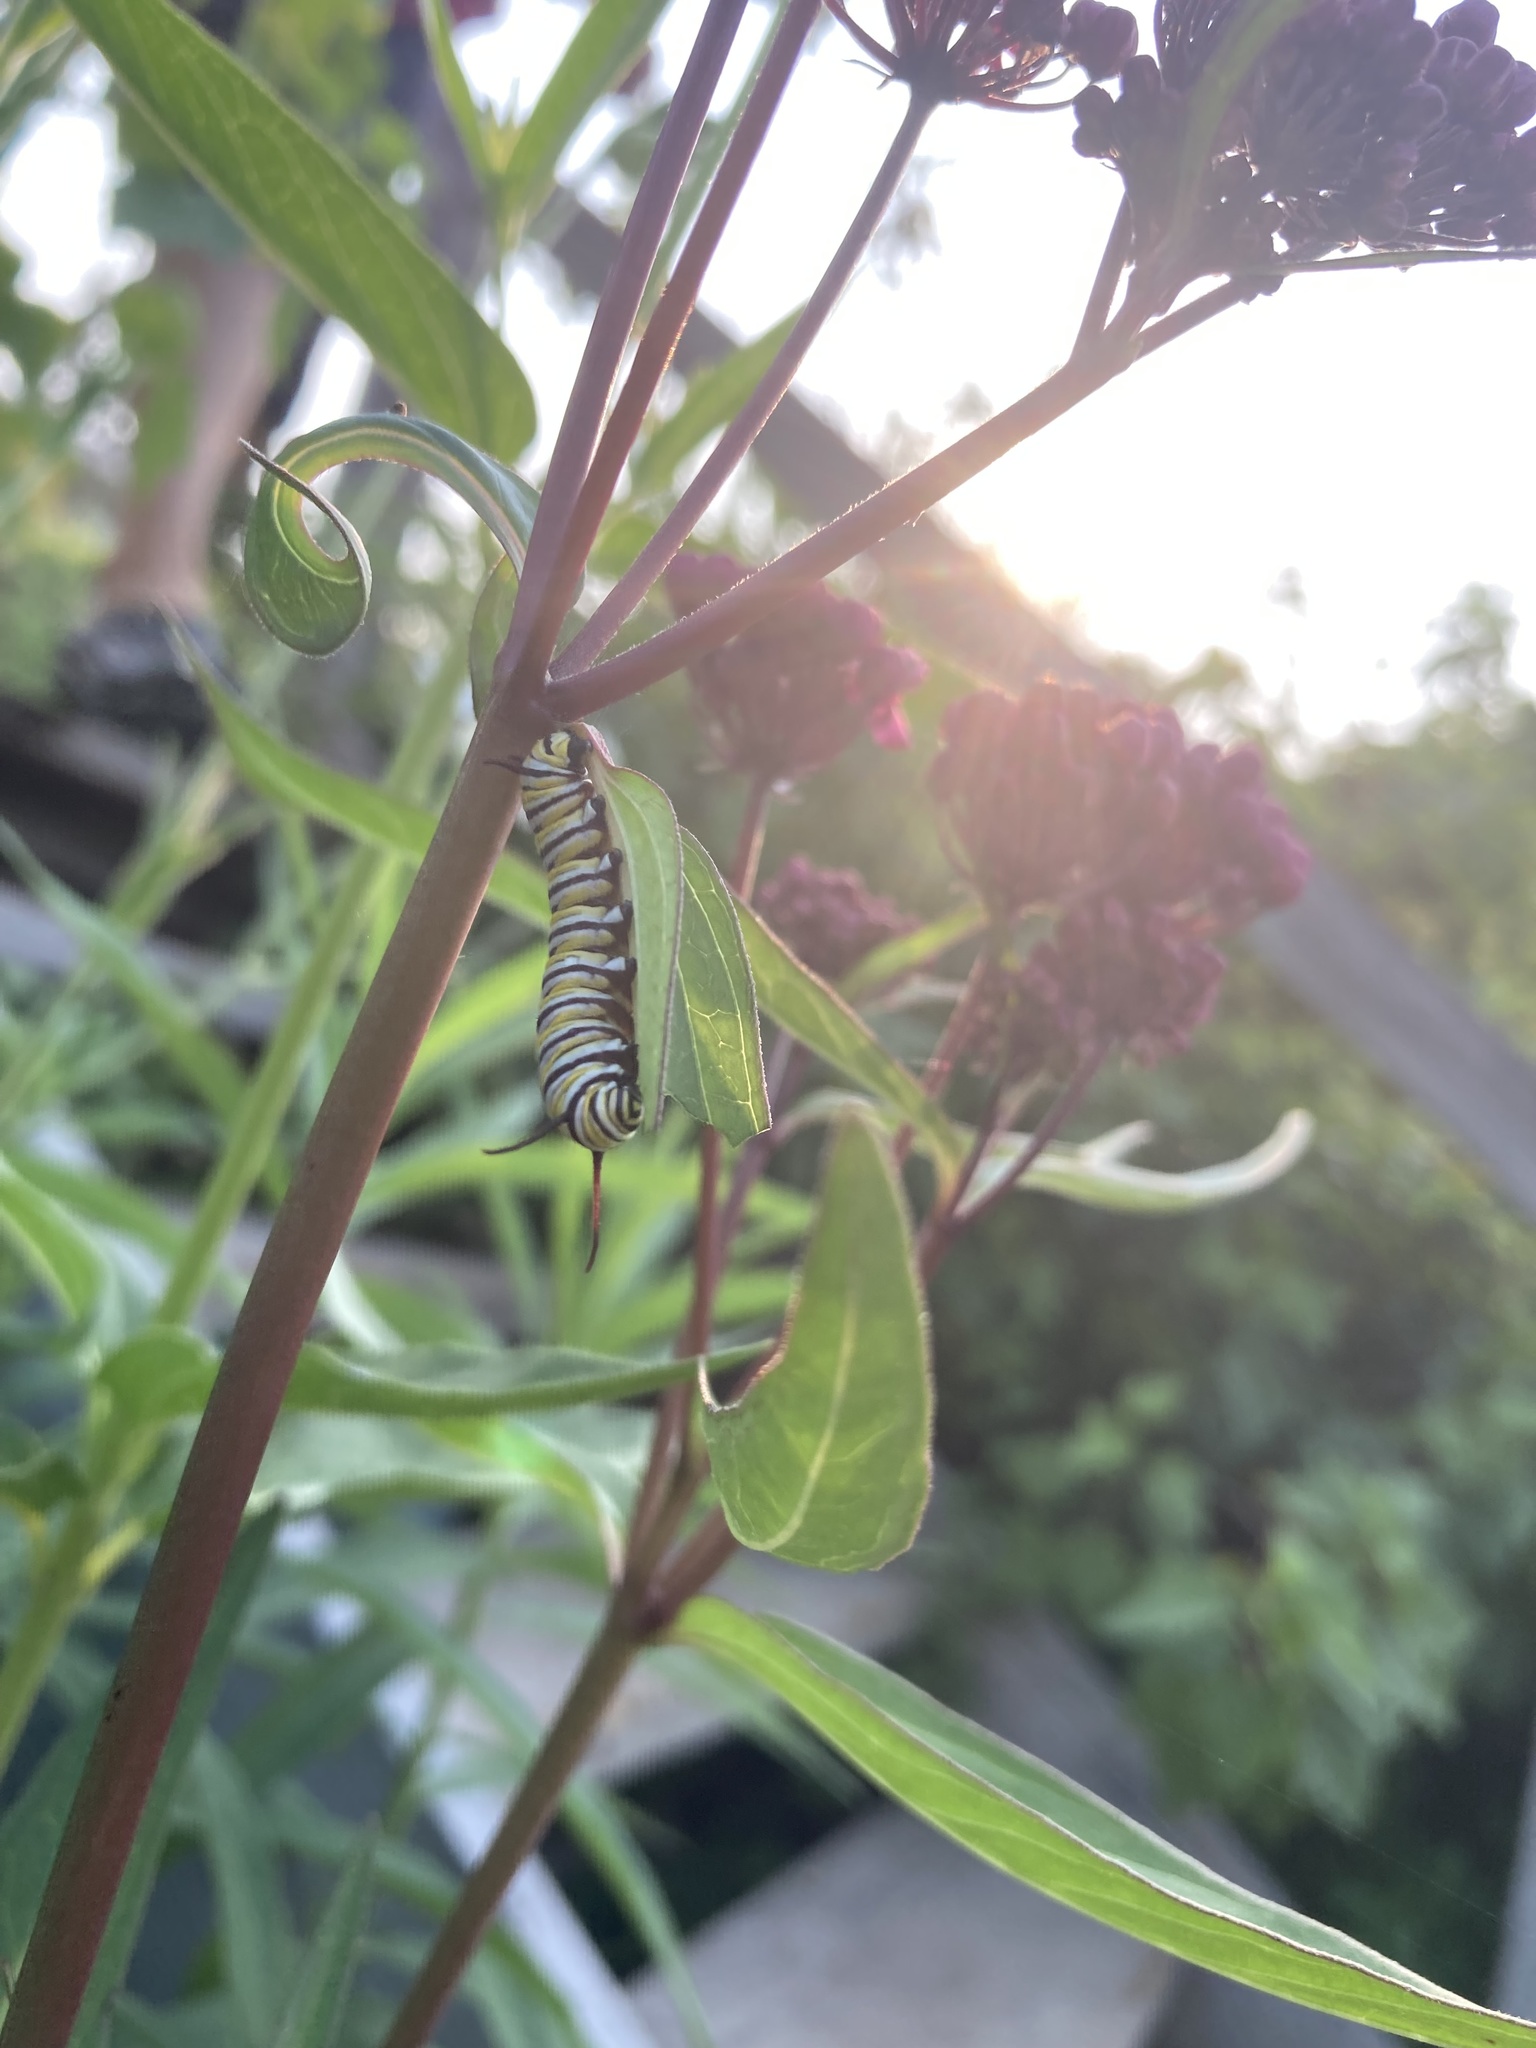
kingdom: Animalia
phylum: Arthropoda
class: Insecta
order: Lepidoptera
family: Nymphalidae
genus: Danaus
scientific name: Danaus plexippus
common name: Monarch
